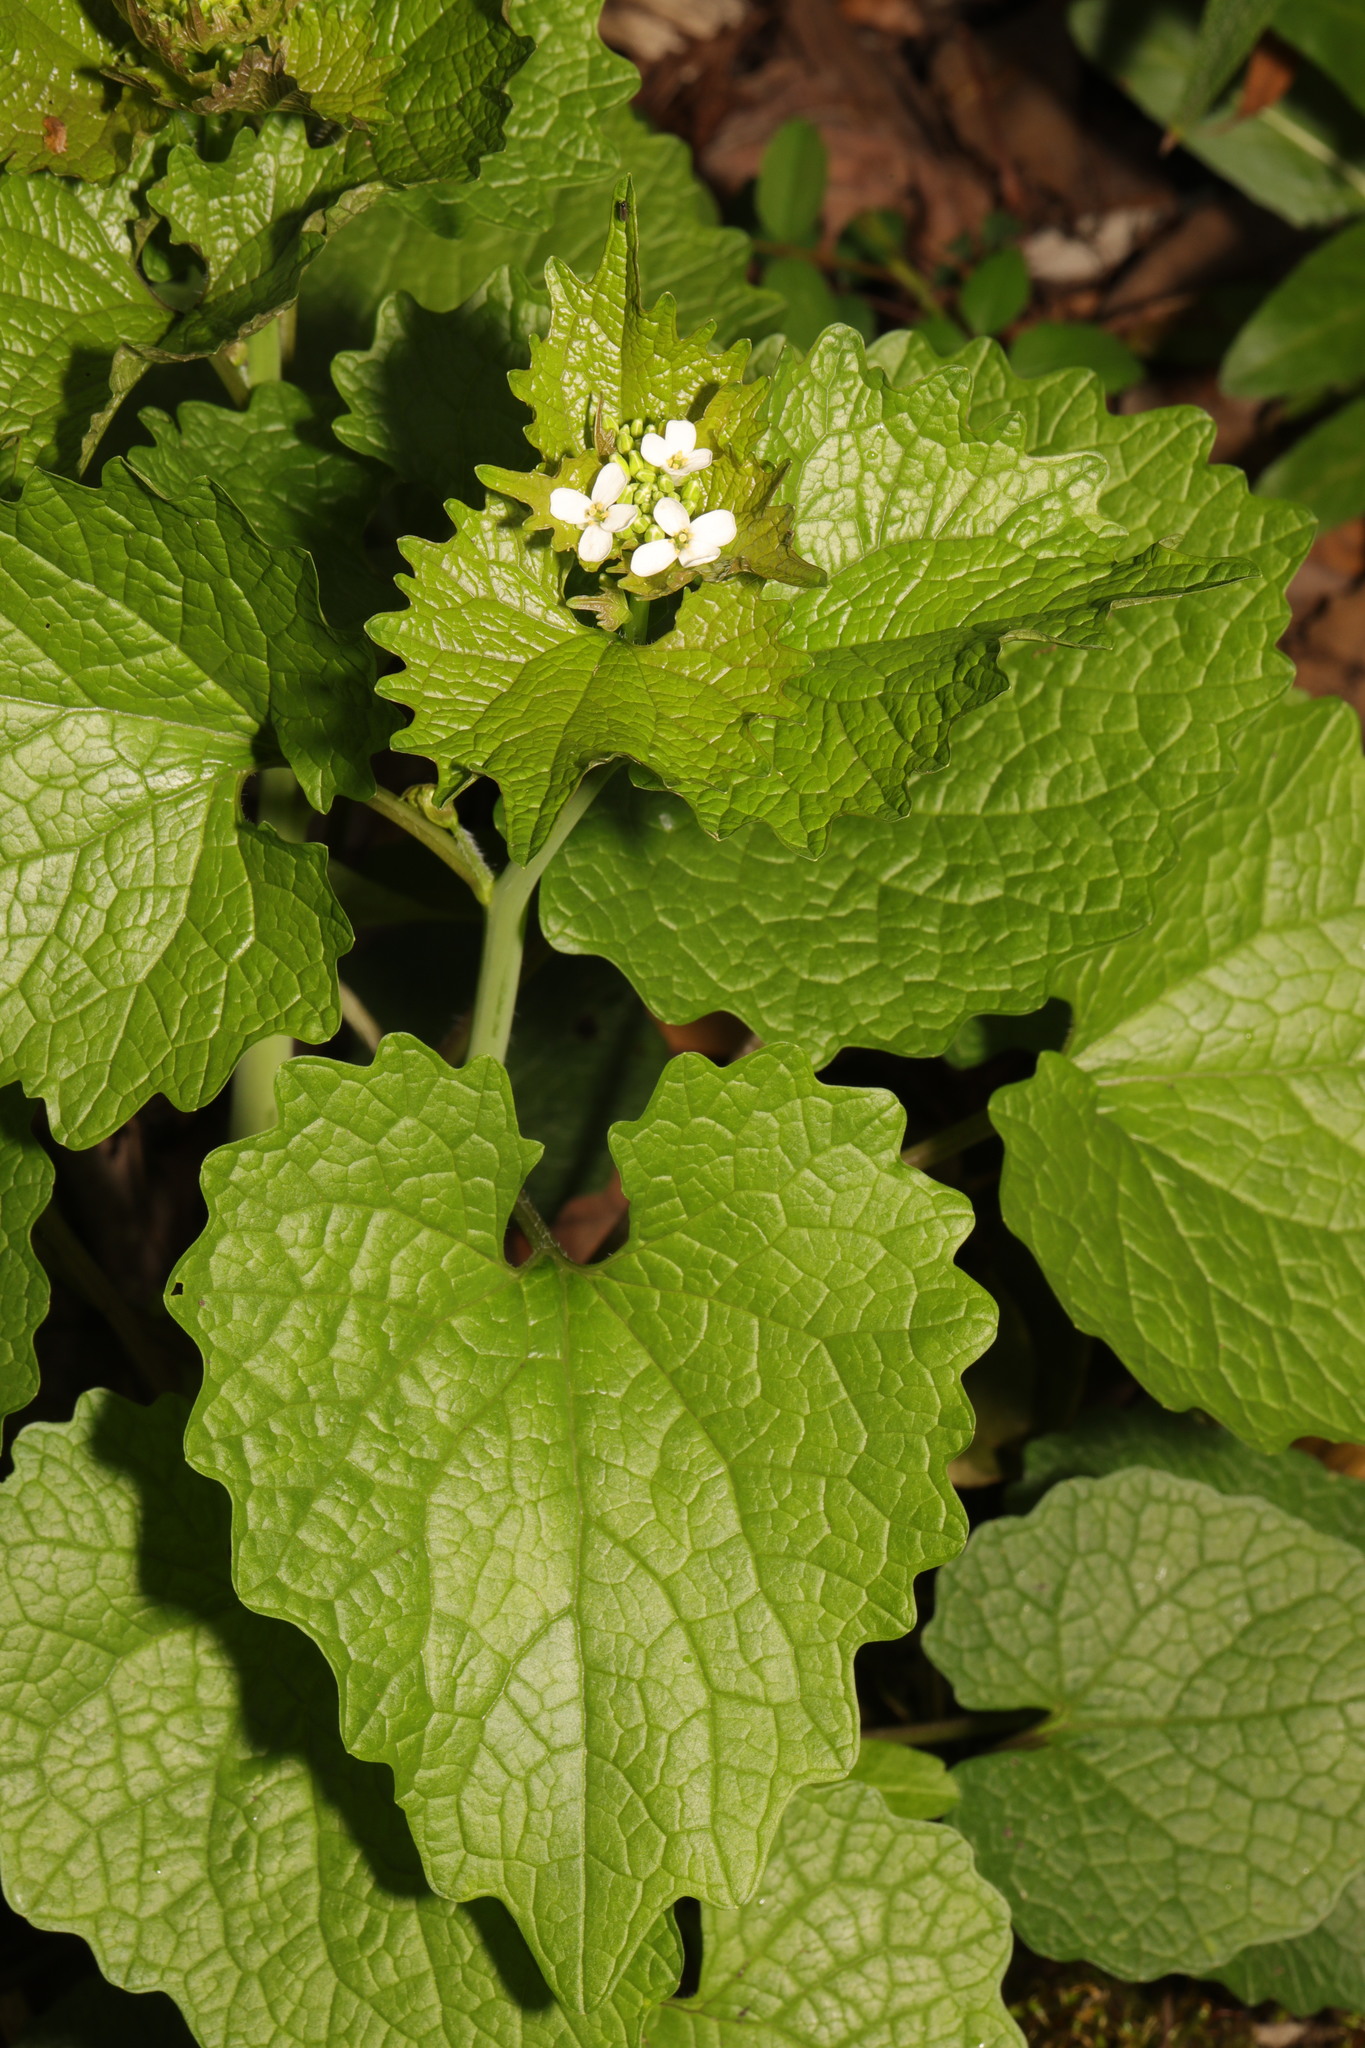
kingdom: Plantae
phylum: Tracheophyta
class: Magnoliopsida
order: Brassicales
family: Brassicaceae
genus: Alliaria
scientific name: Alliaria petiolata
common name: Garlic mustard
